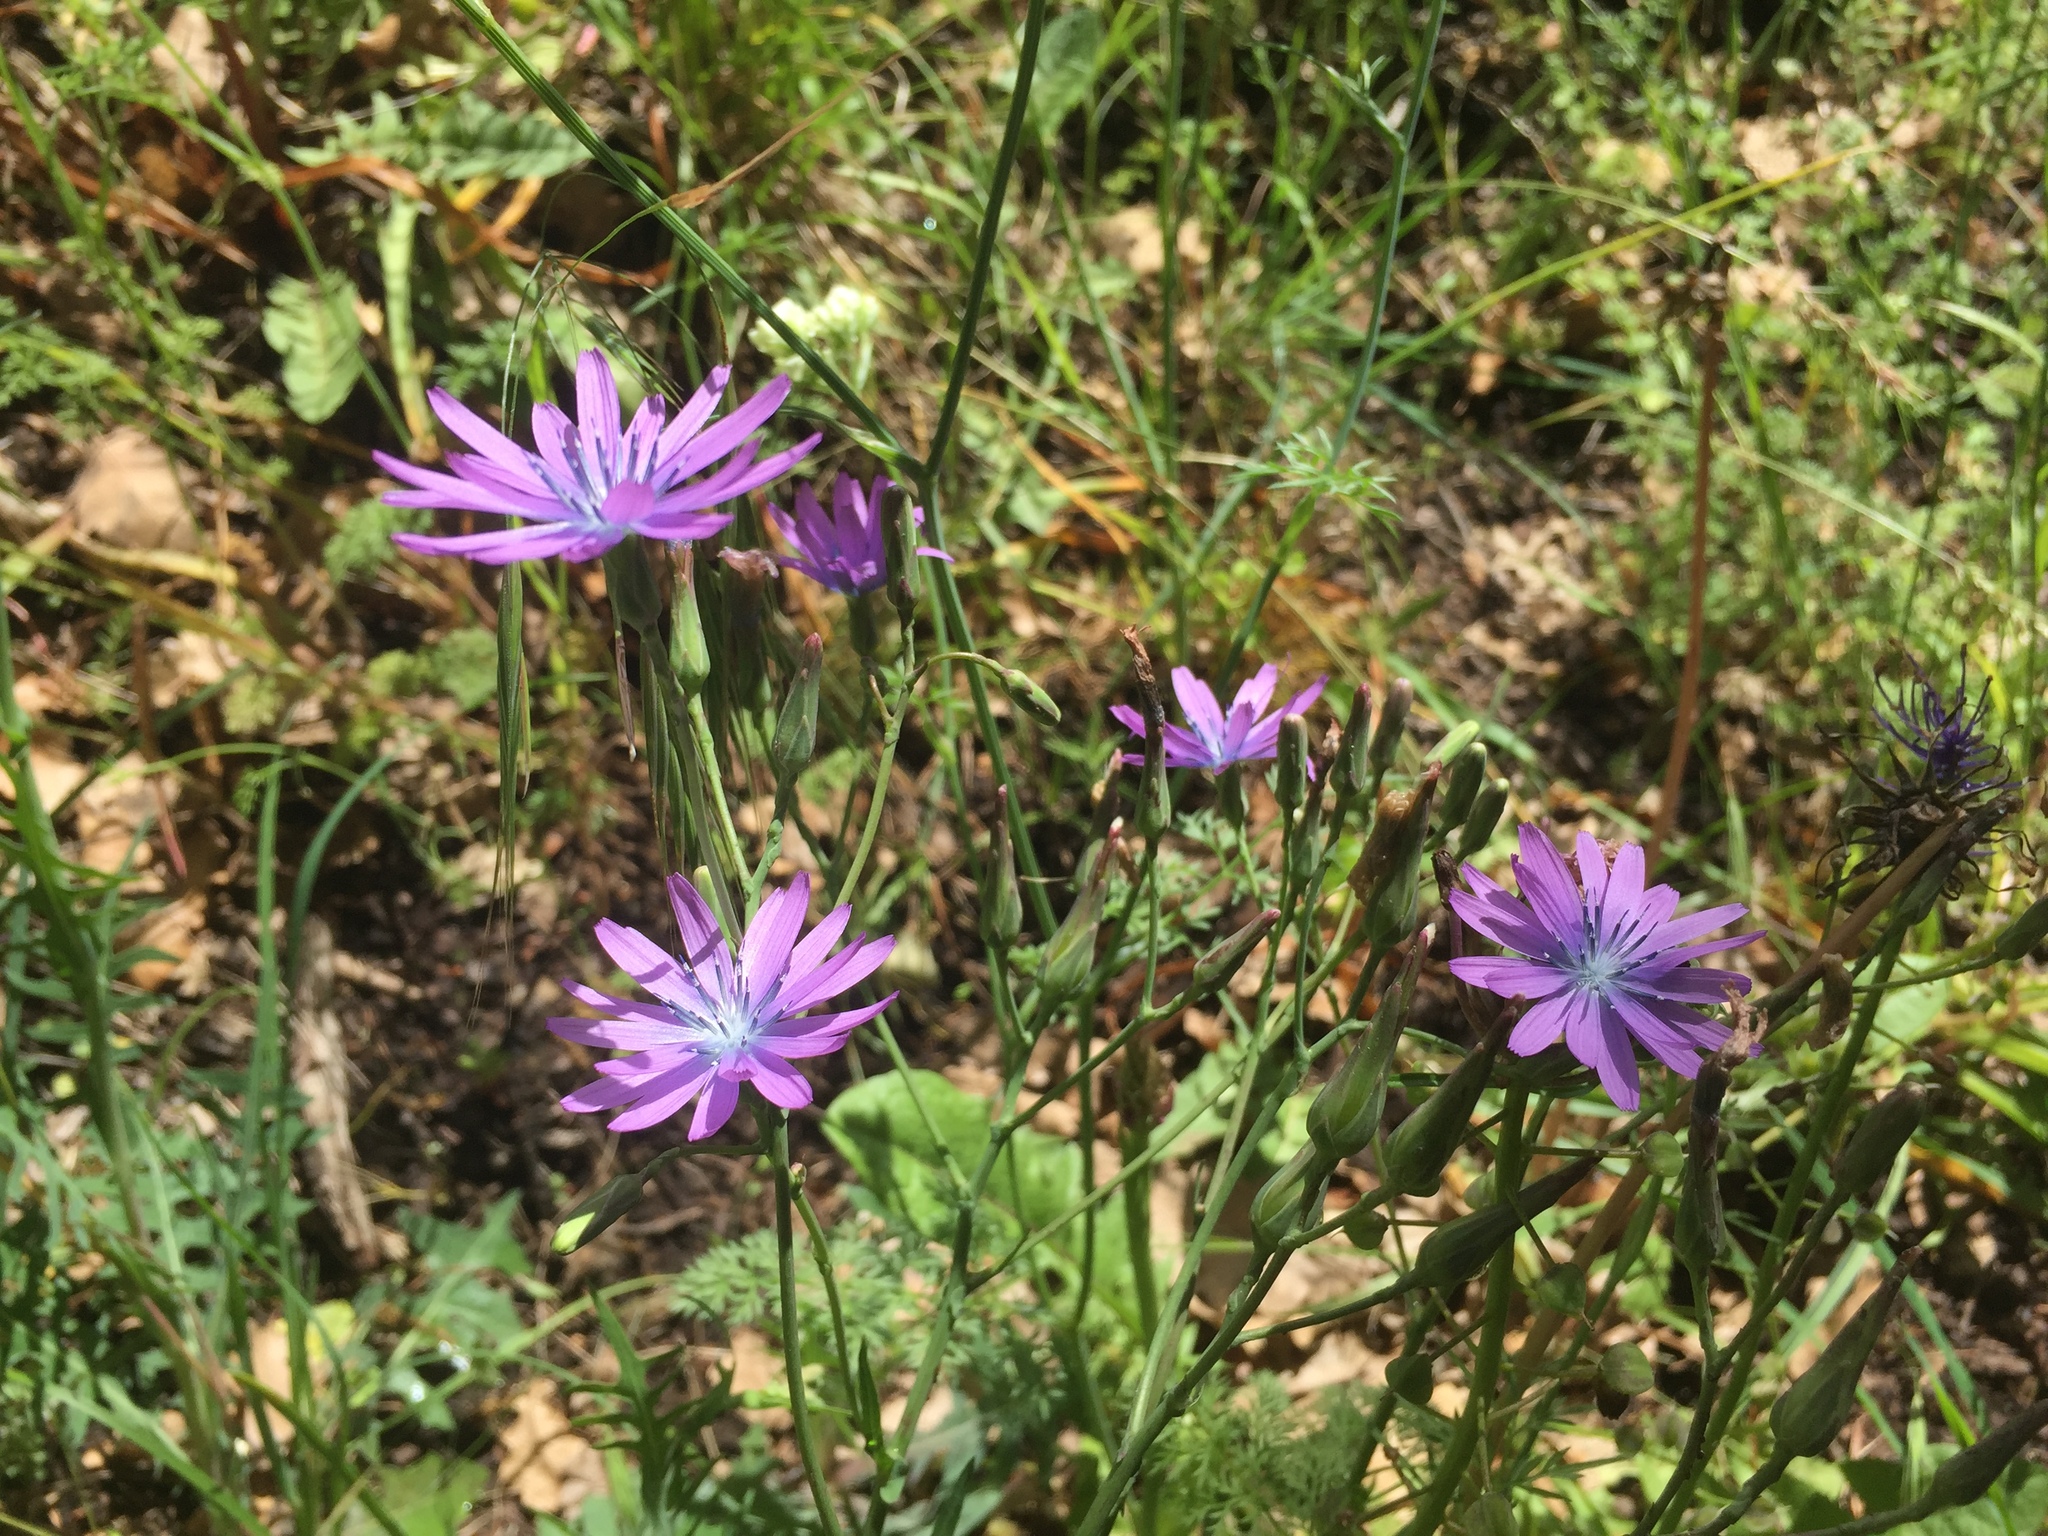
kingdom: Plantae
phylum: Tracheophyta
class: Magnoliopsida
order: Asterales
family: Asteraceae
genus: Lactuca
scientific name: Lactuca perennis
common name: Mountain lettuce
